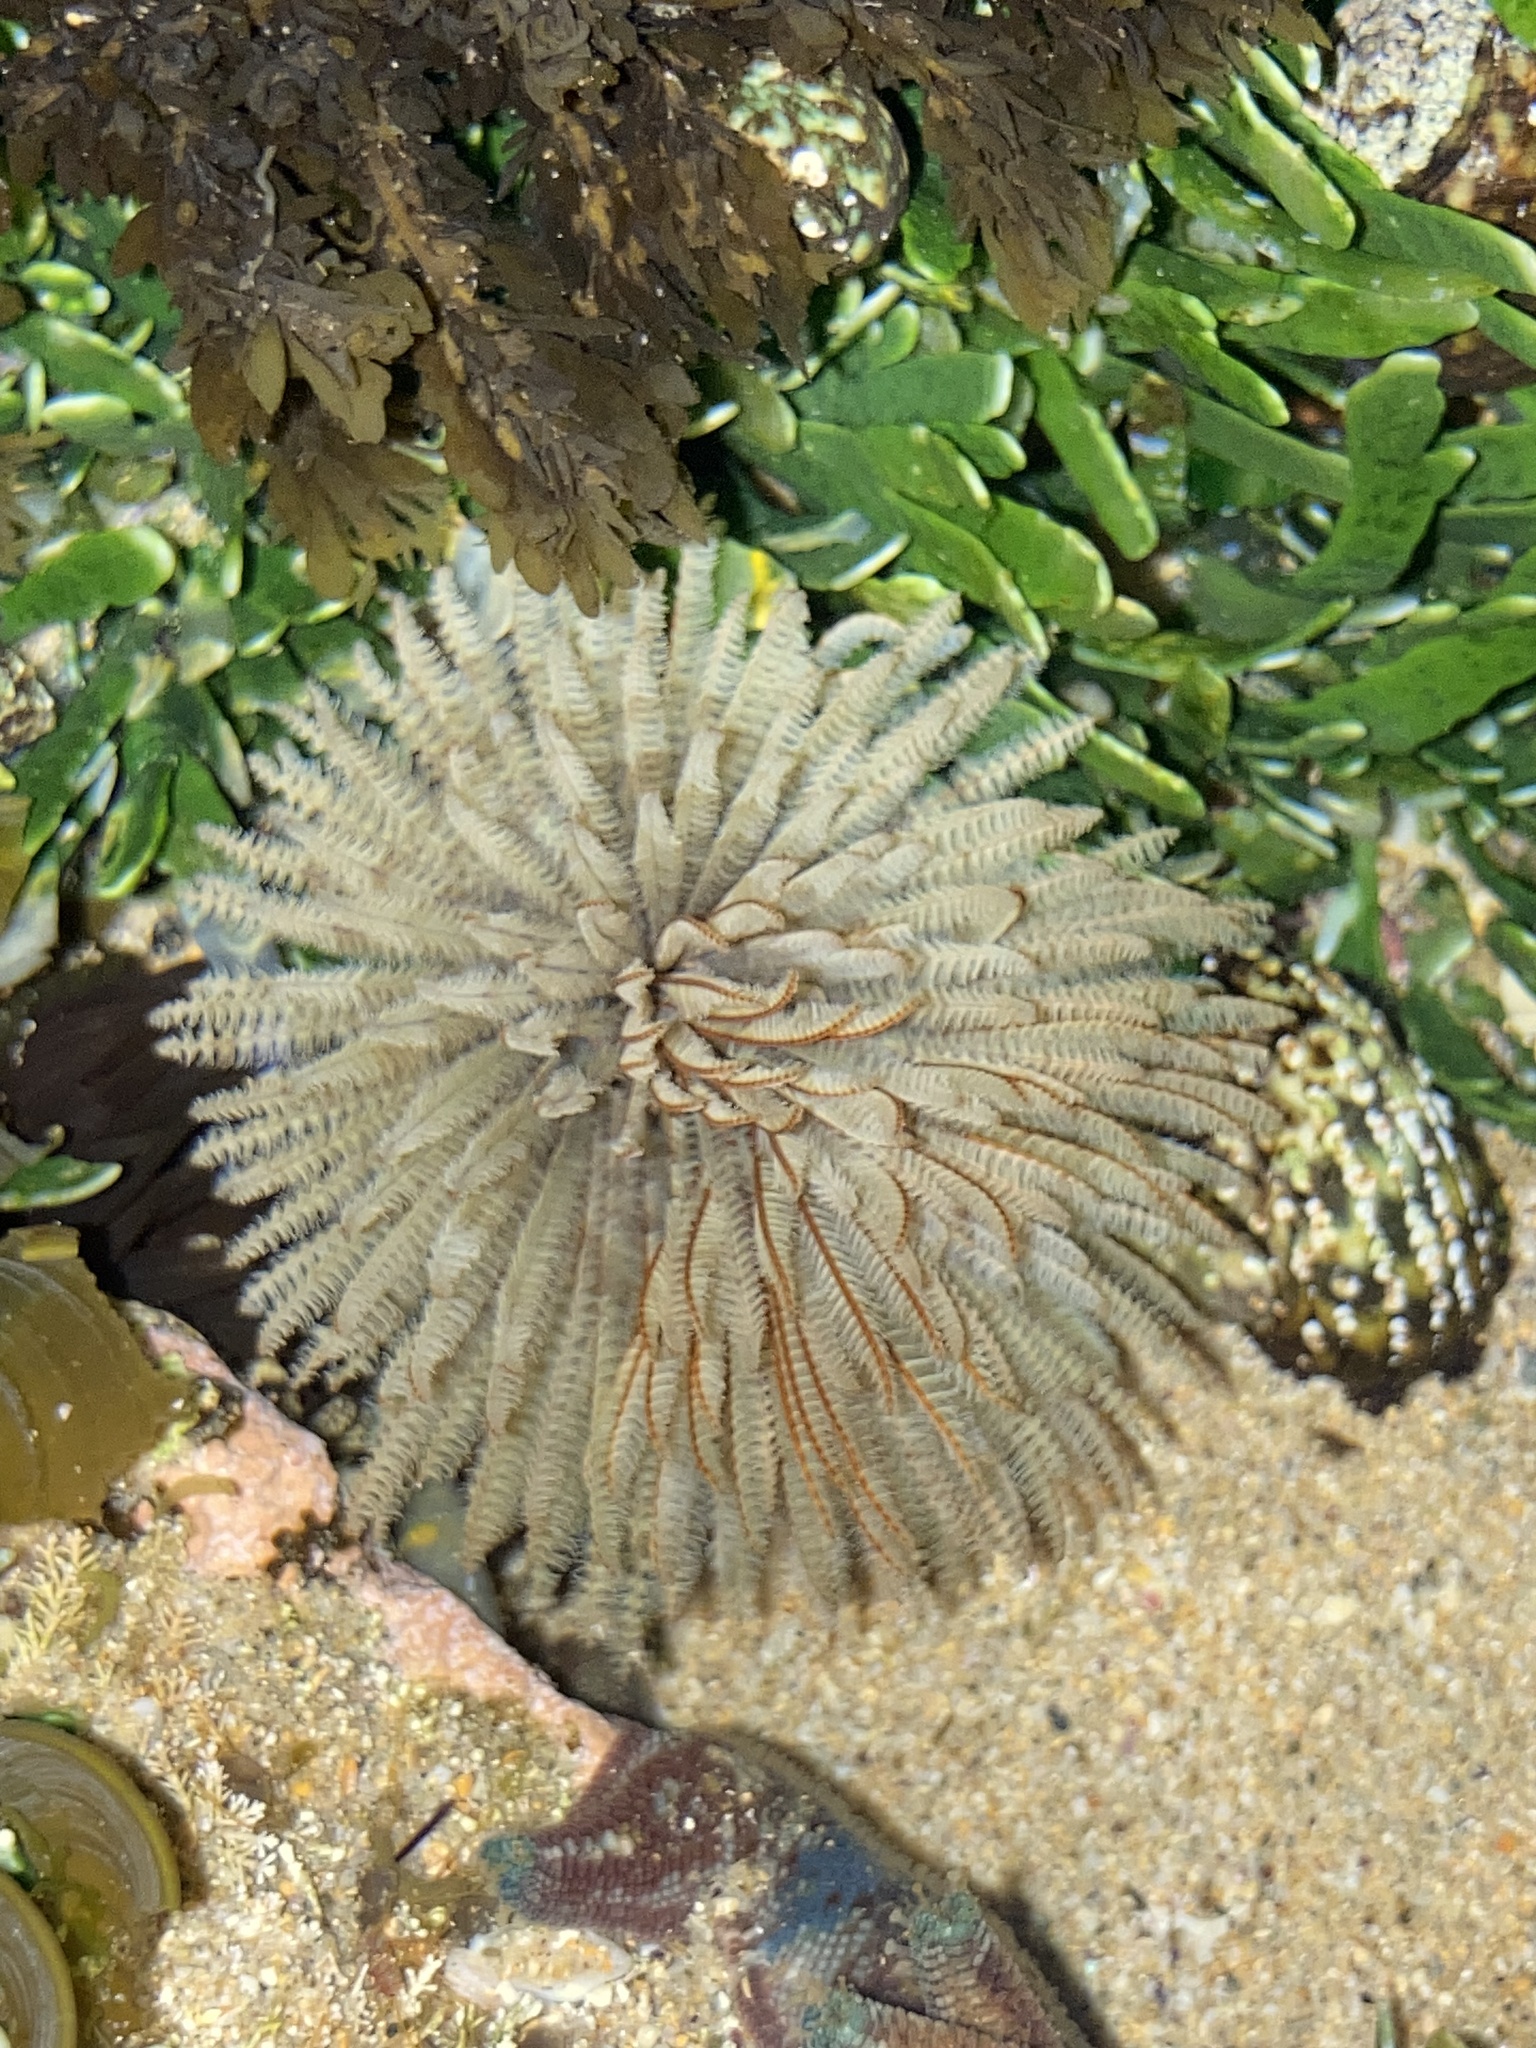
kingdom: Animalia
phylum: Annelida
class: Polychaeta
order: Sabellida
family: Sabellidae
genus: Sabellastarte
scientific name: Sabellastarte australiensis
